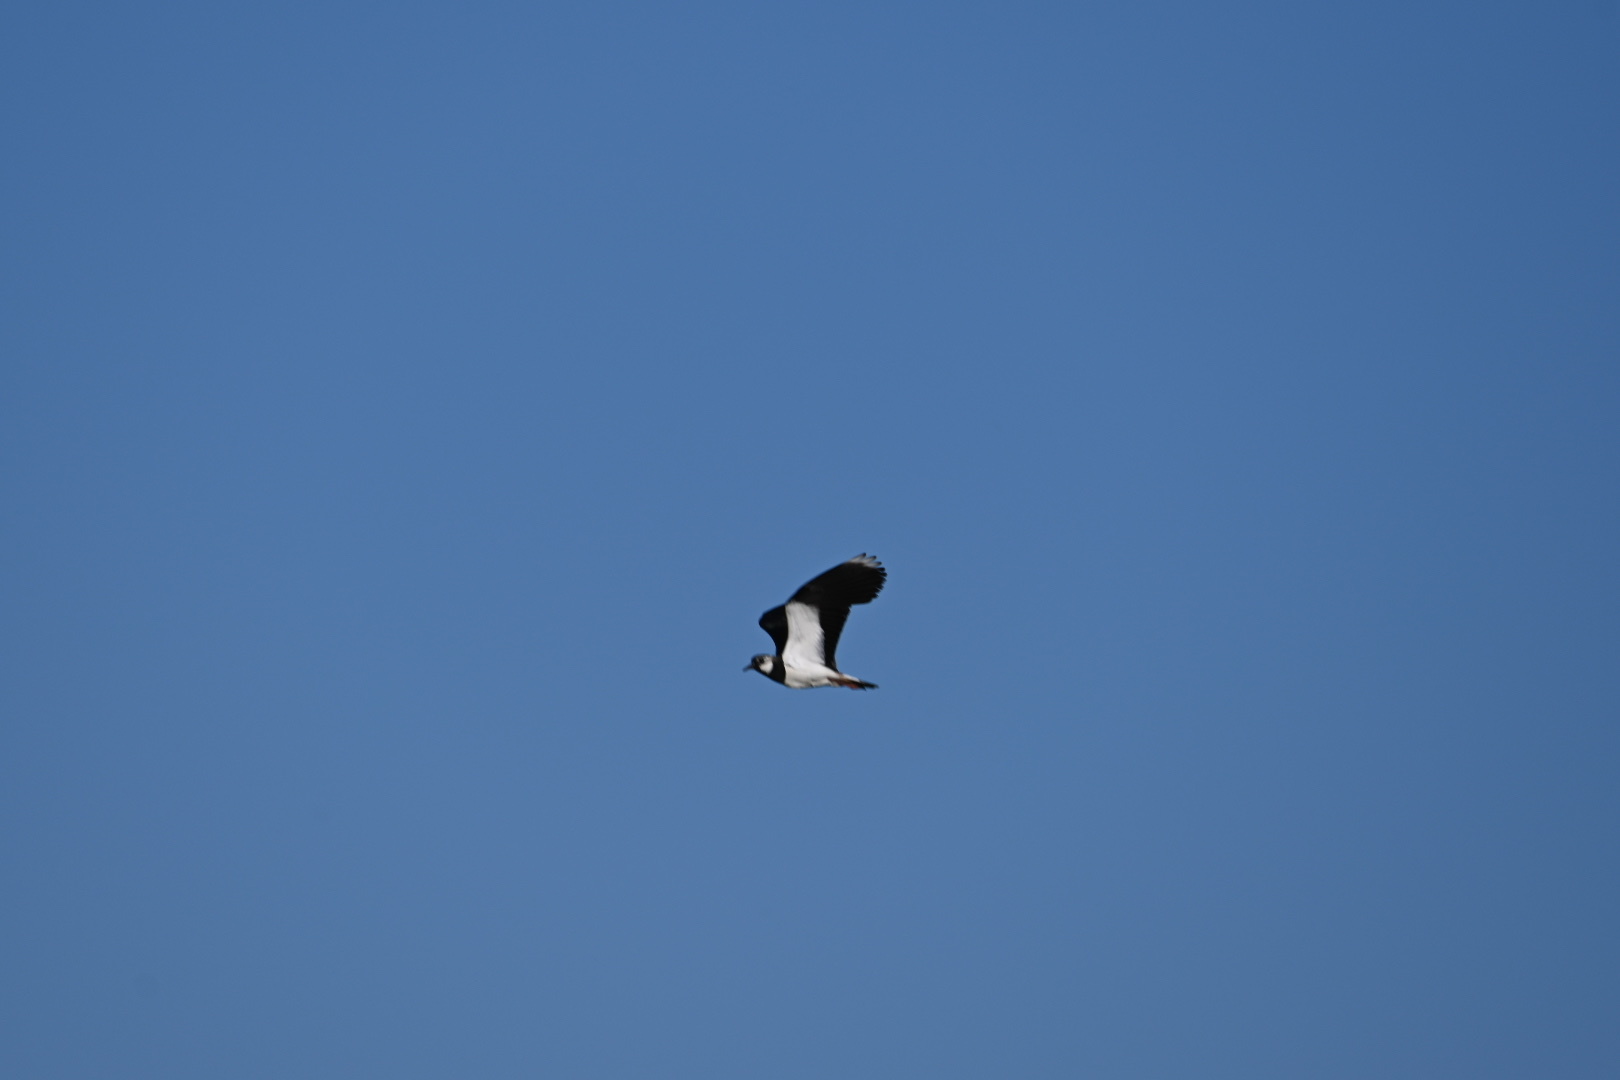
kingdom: Animalia
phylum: Chordata
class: Aves
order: Charadriiformes
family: Charadriidae
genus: Vanellus
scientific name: Vanellus vanellus
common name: Northern lapwing
